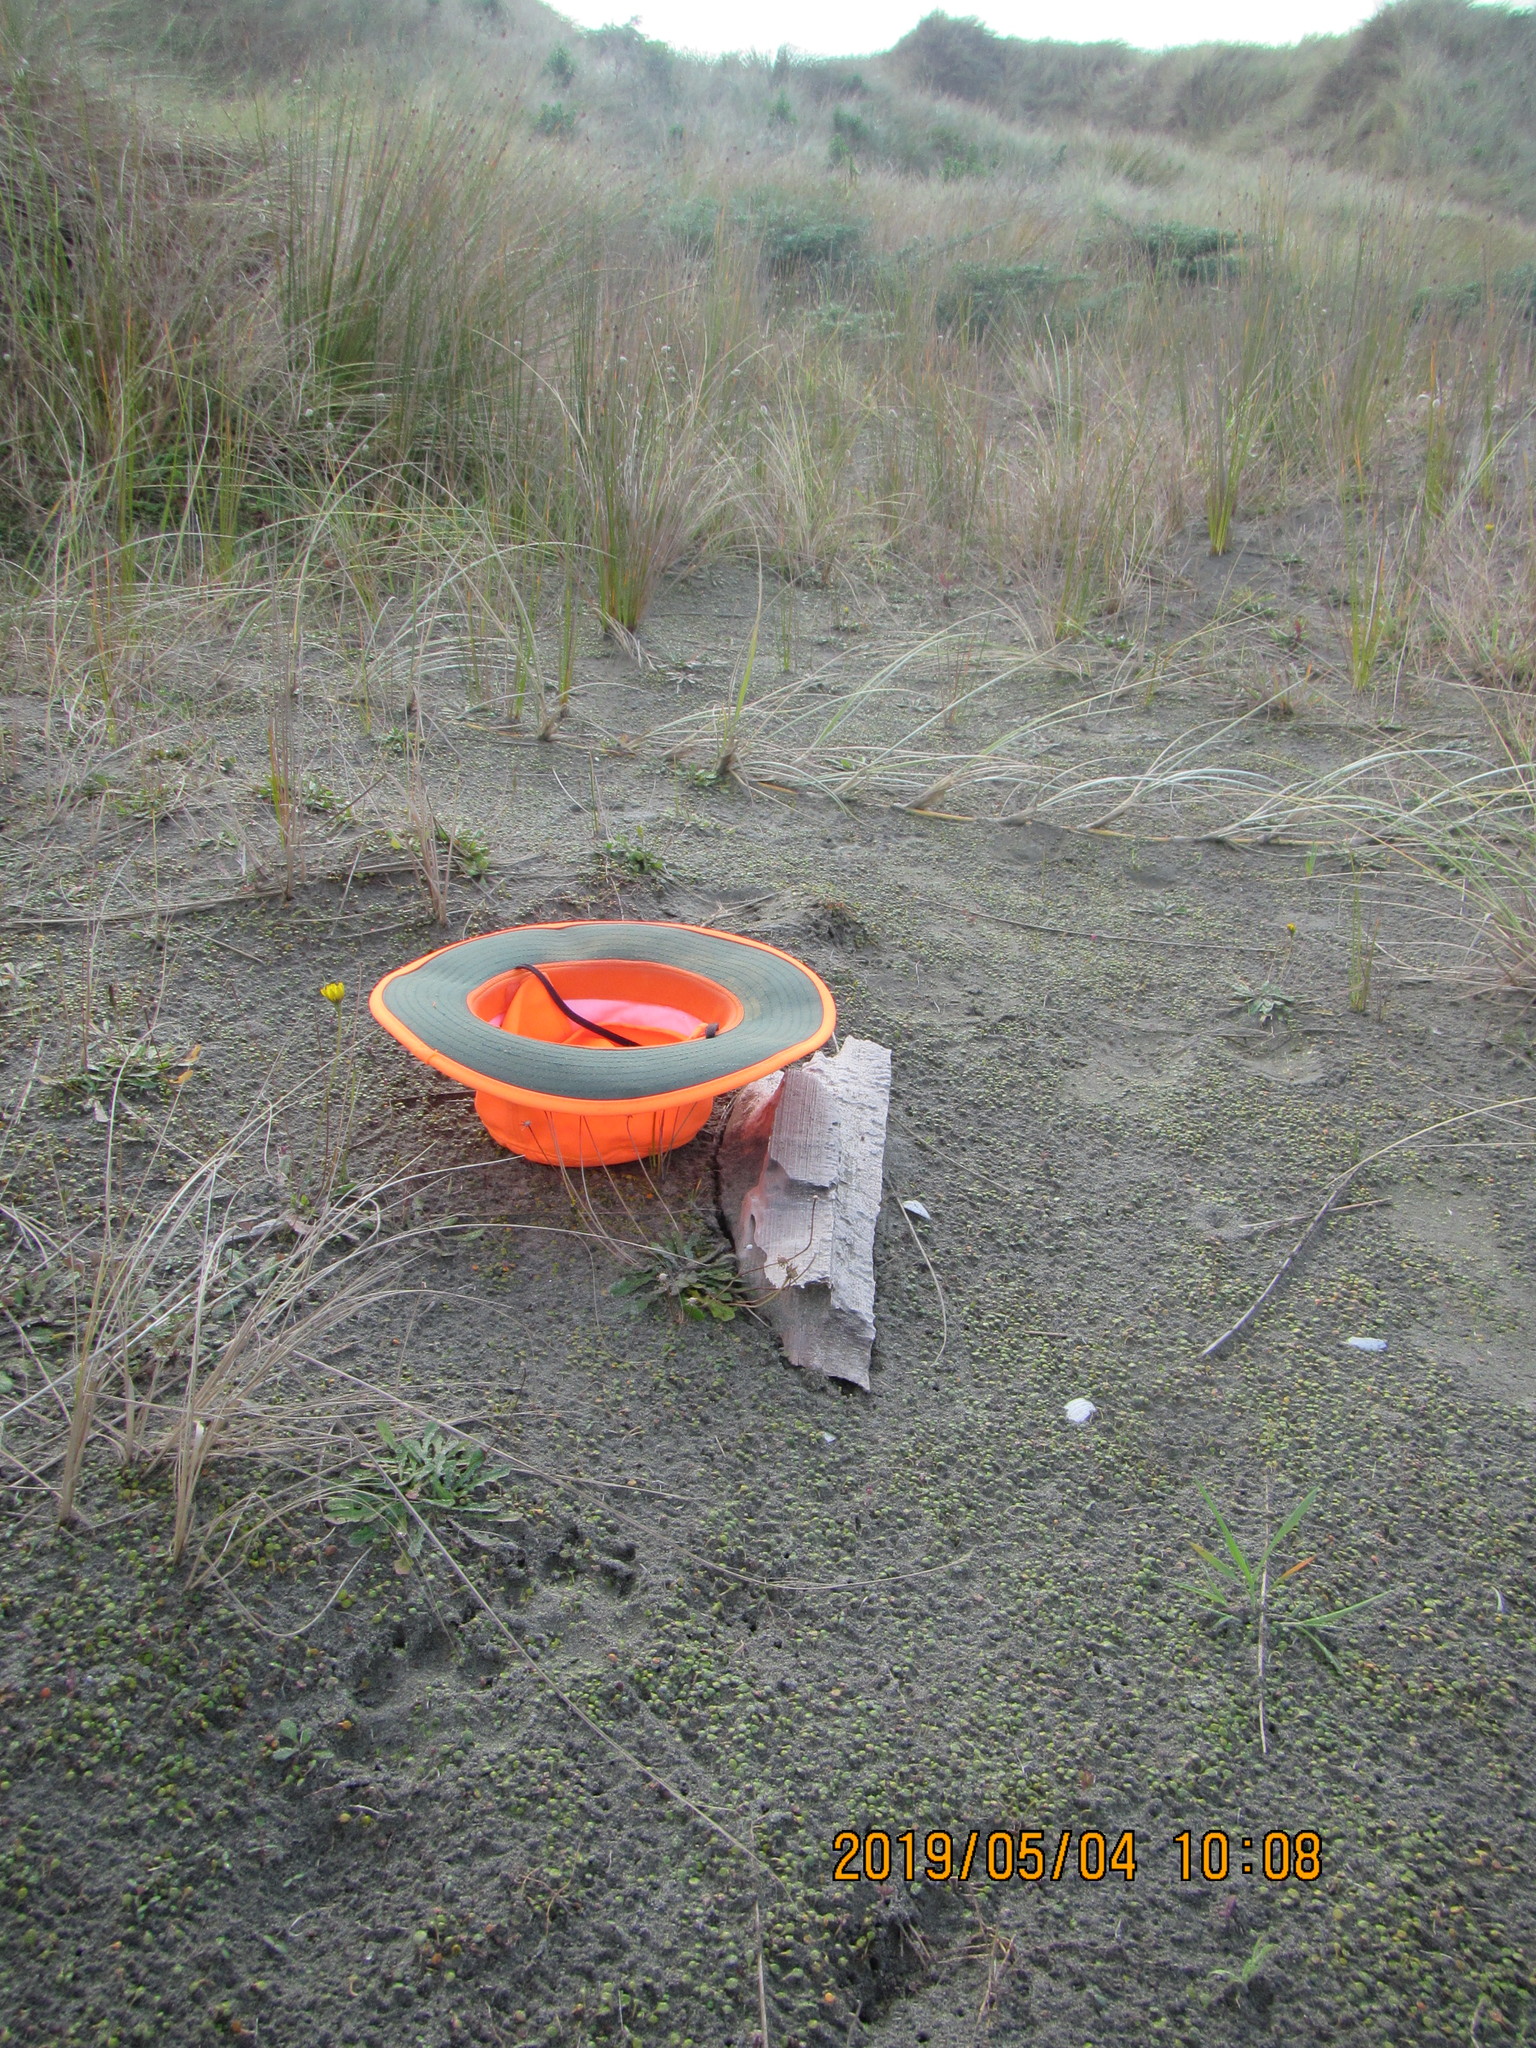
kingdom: Animalia
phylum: Arthropoda
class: Malacostraca
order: Isopoda
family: Porcellionidae
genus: Porcellio
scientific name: Porcellio scaber
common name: Common rough woodlouse
